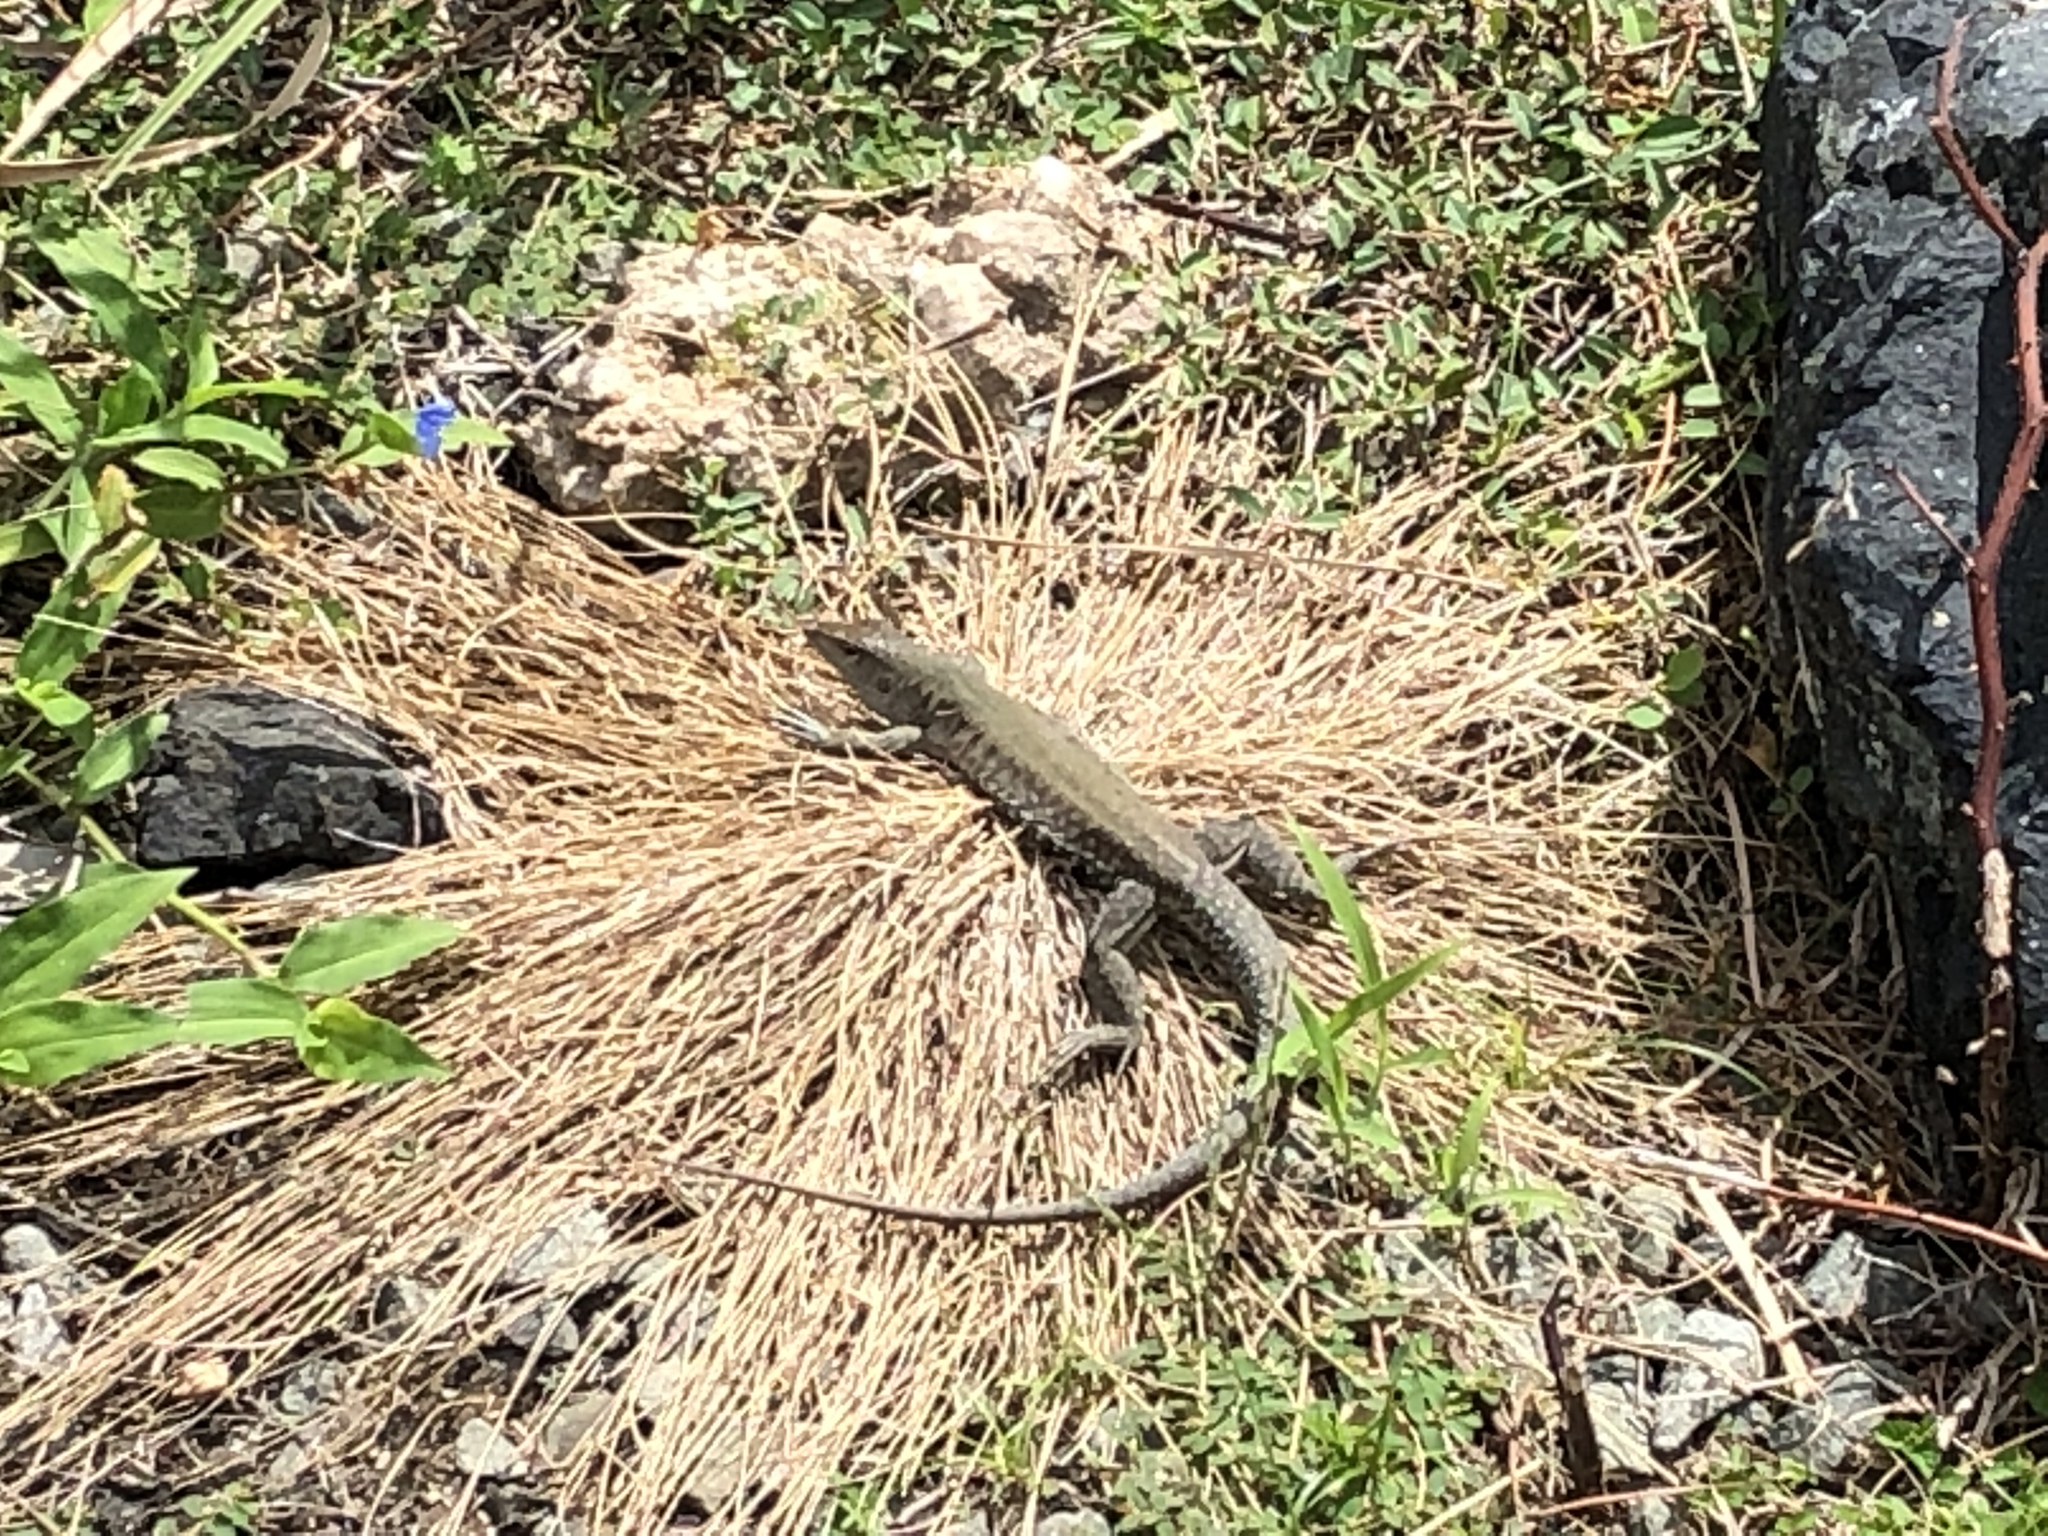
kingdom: Animalia
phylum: Chordata
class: Squamata
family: Teiidae
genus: Pholidoscelis
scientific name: Pholidoscelis exsul
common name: Common puerto rican ameiva
